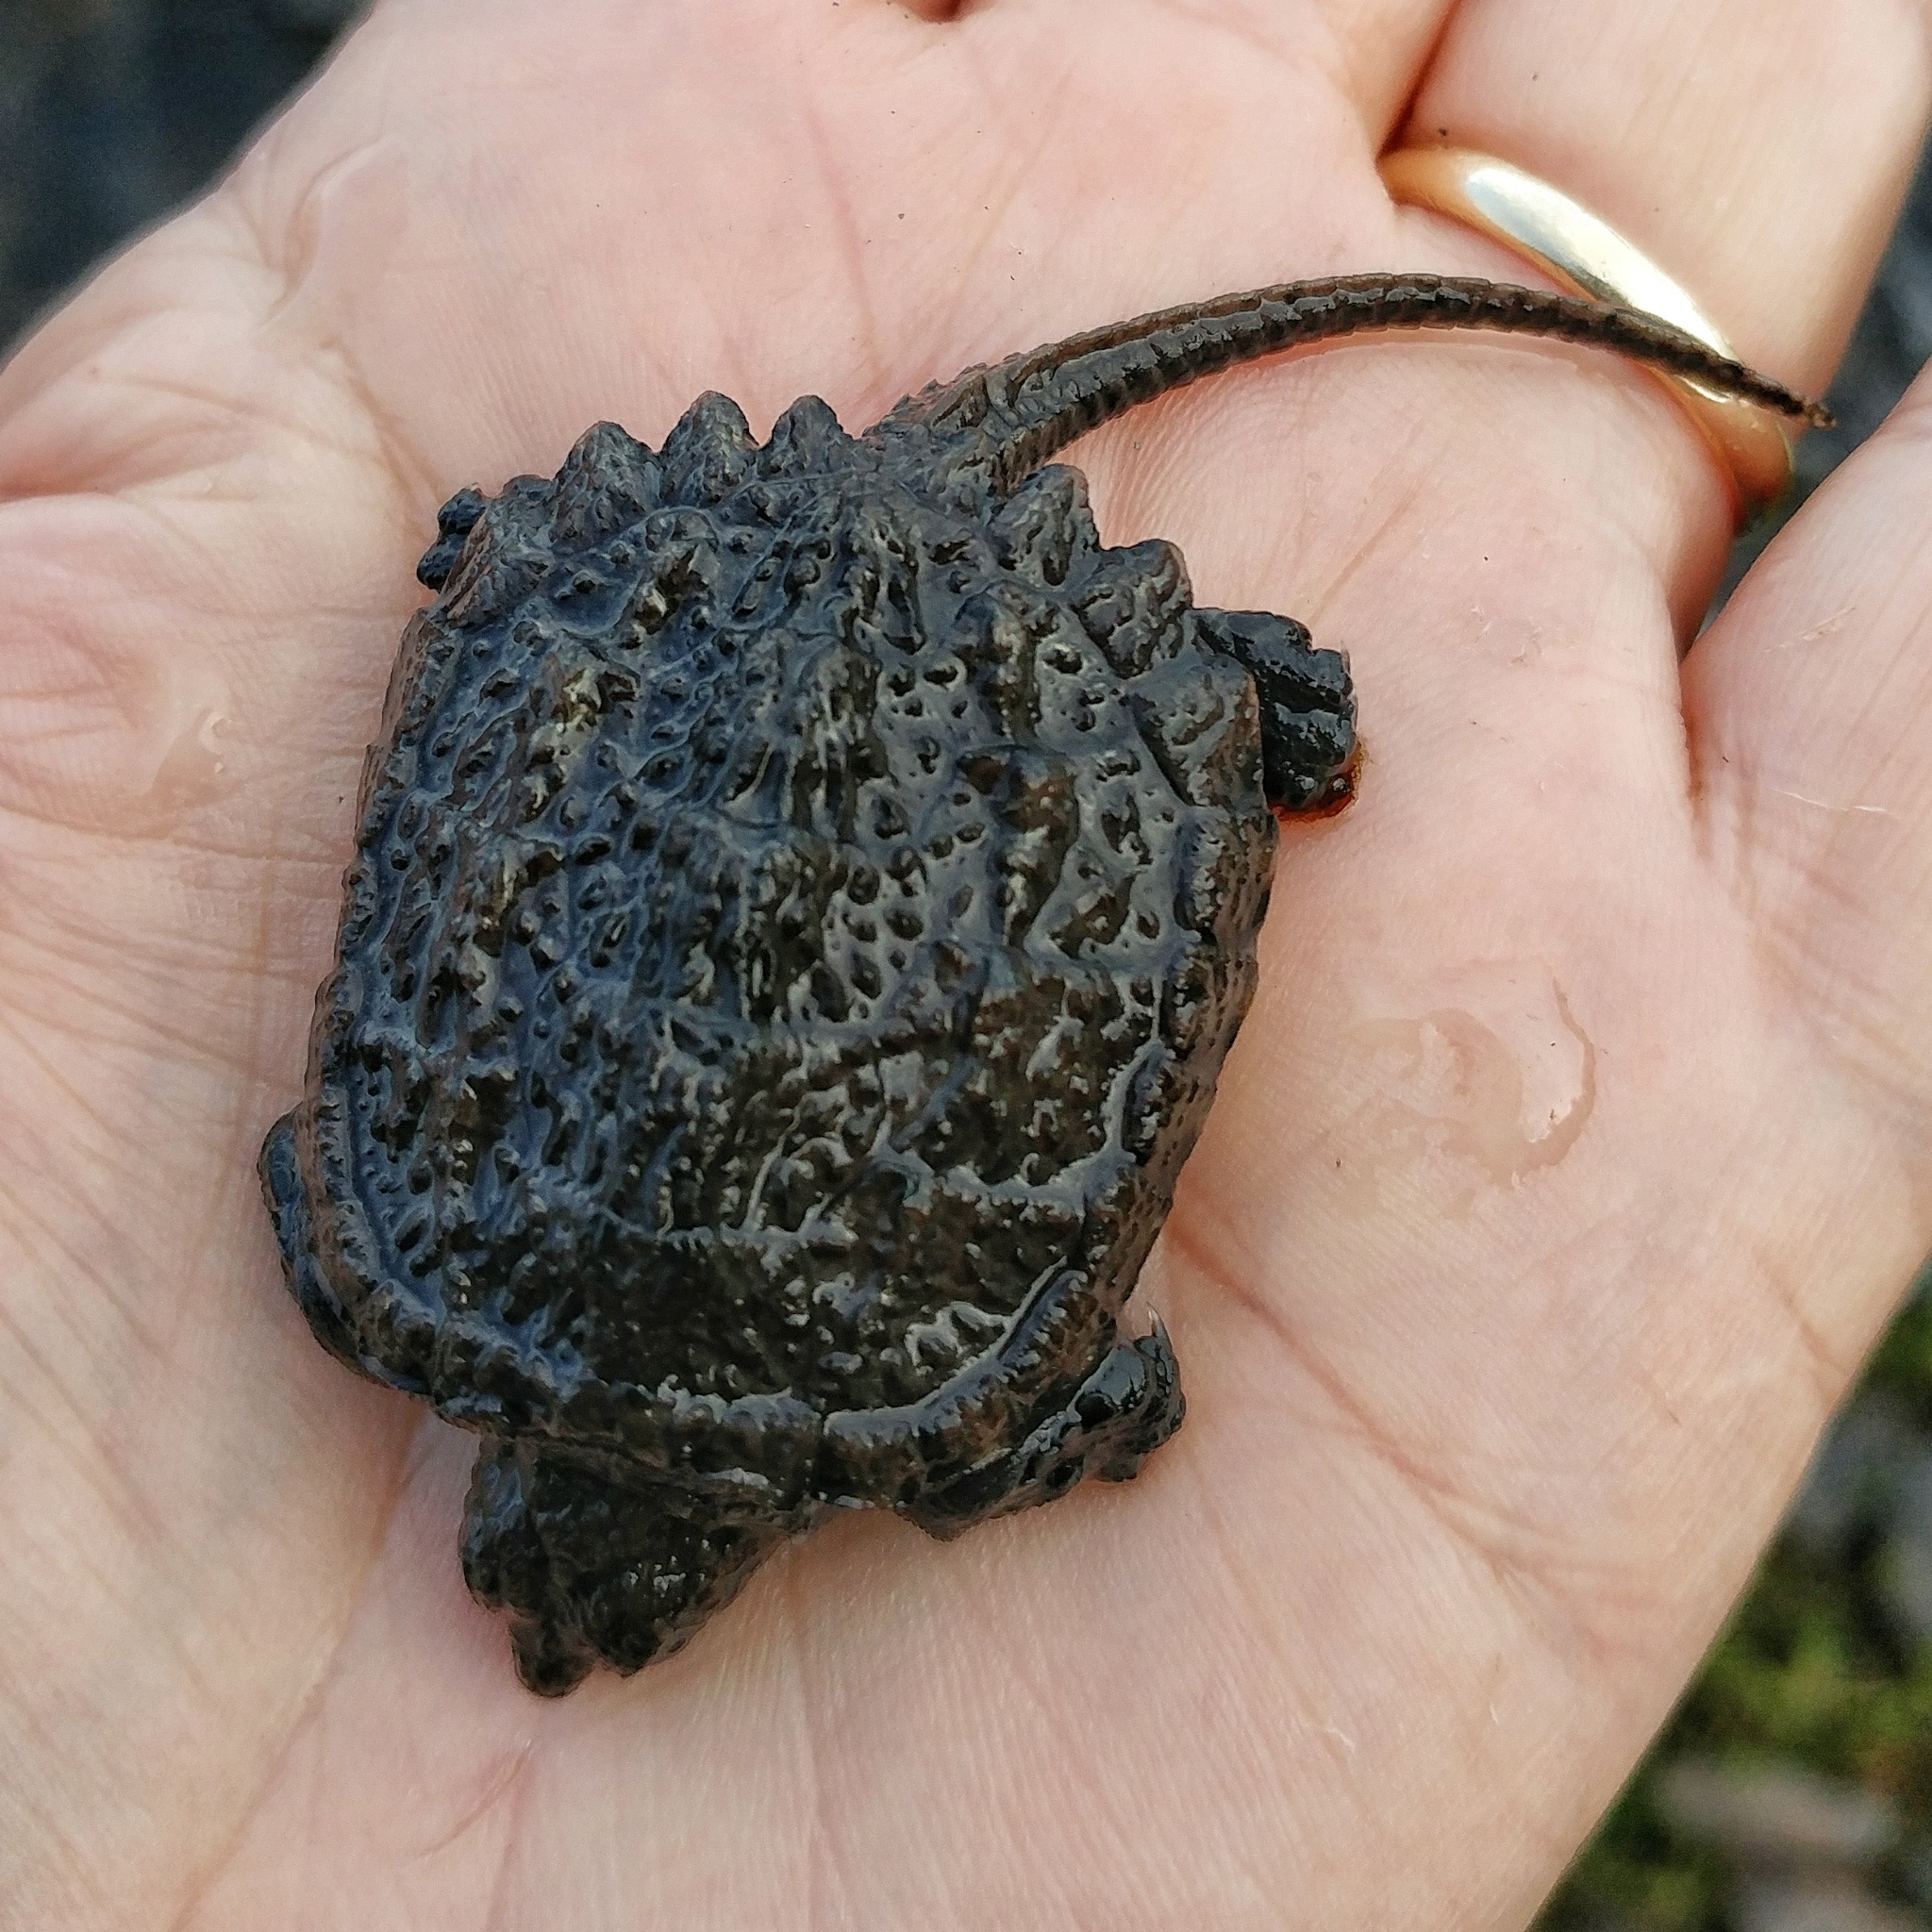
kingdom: Animalia
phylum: Chordata
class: Testudines
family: Chelydridae
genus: Chelydra
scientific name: Chelydra serpentina
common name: Common snapping turtle
